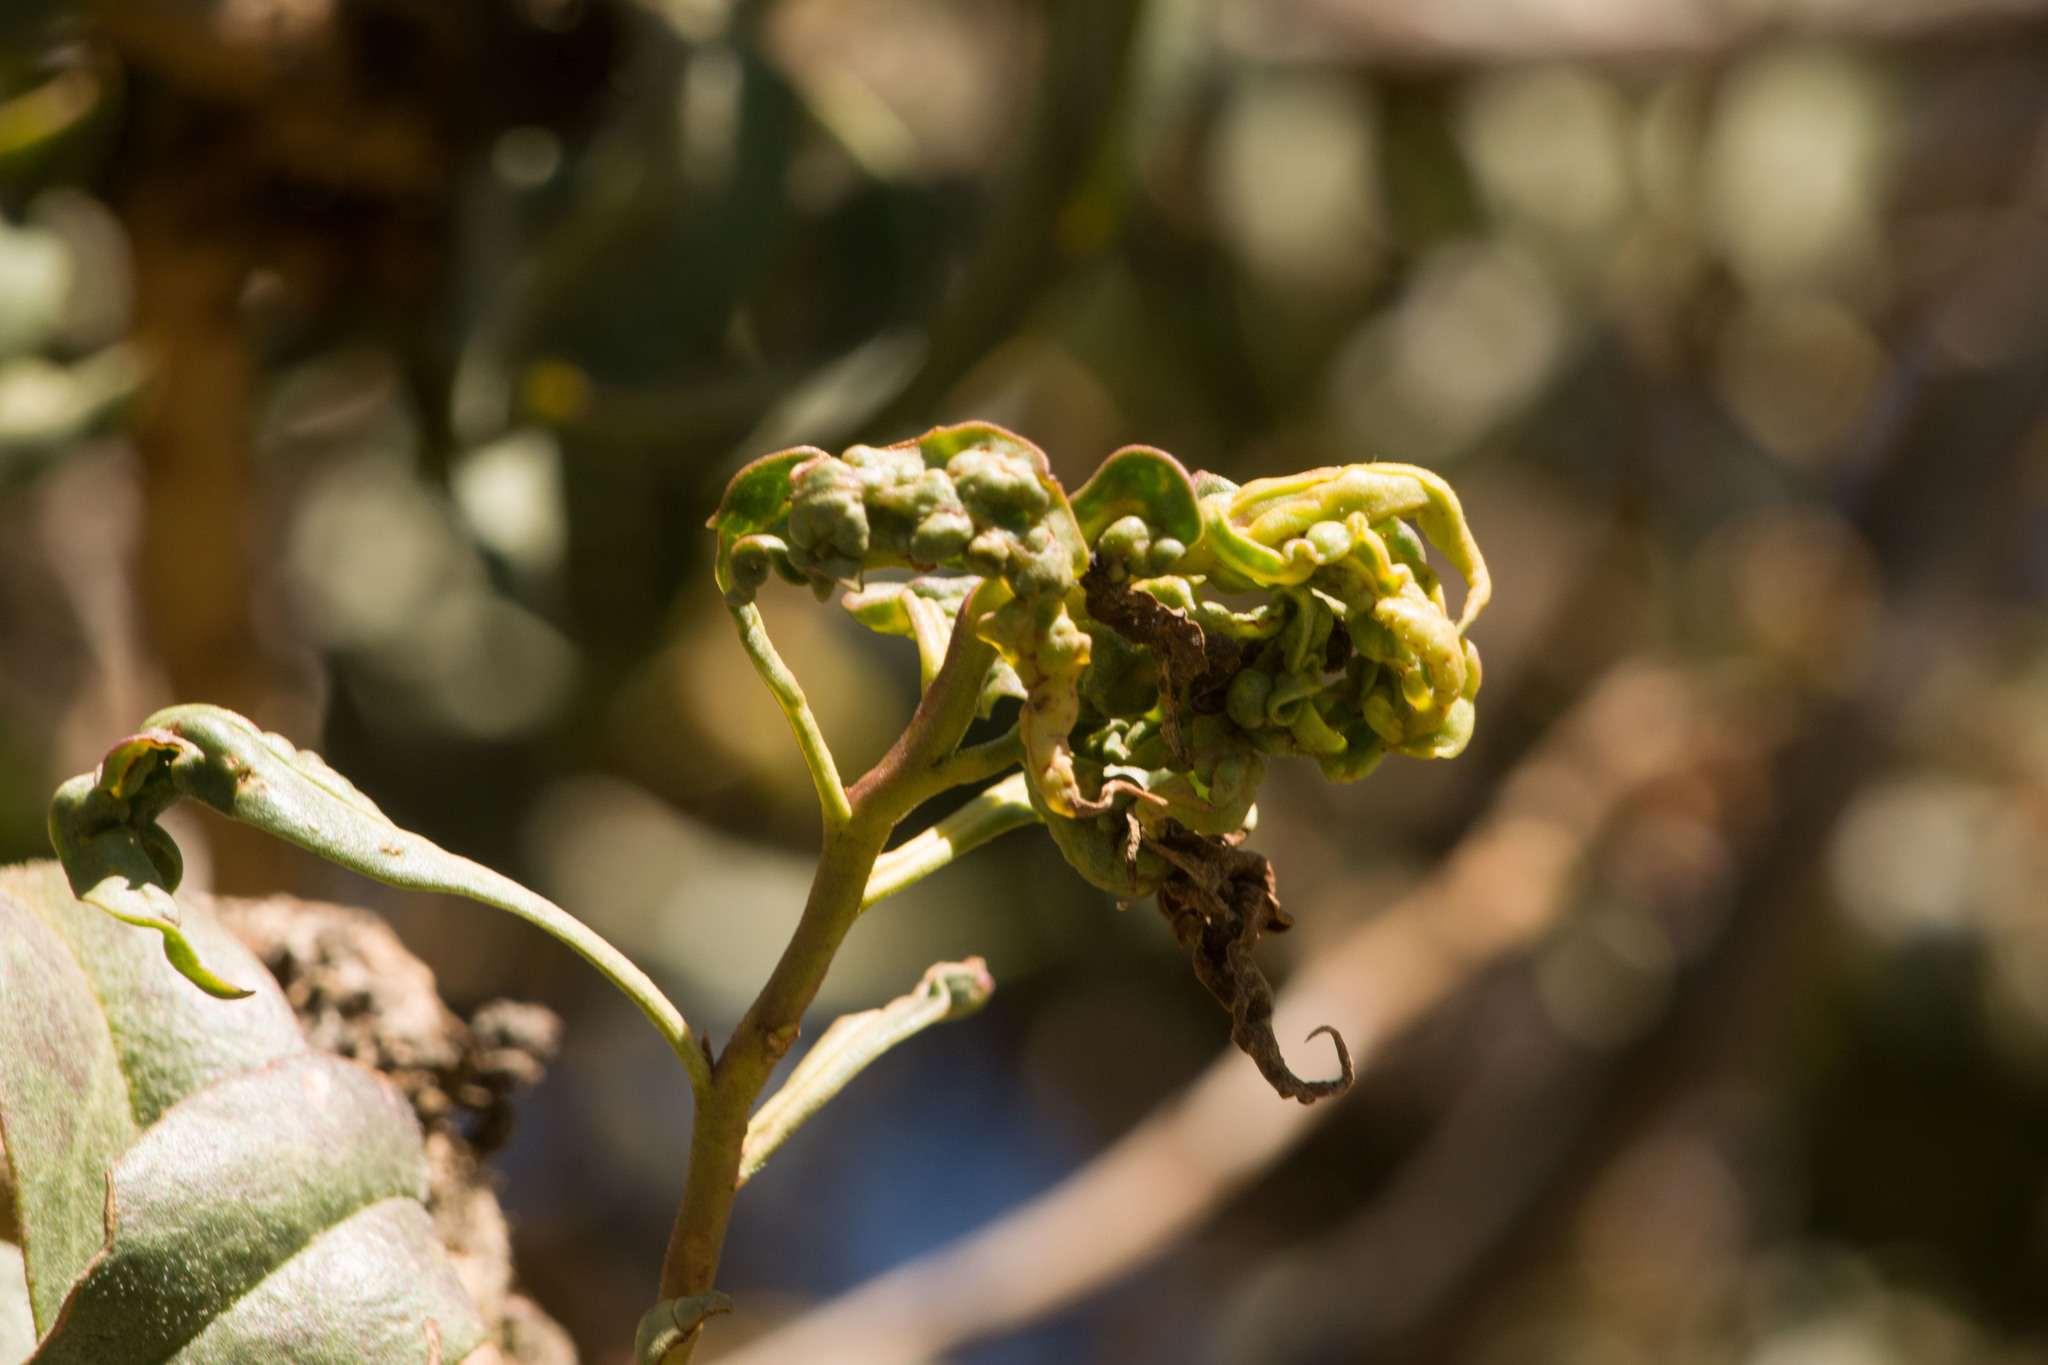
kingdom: Animalia
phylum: Arthropoda
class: Insecta
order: Thysanoptera
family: Phlaeothripidae
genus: Klambothrips
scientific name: Klambothrips myopori
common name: Myoporum thrips
